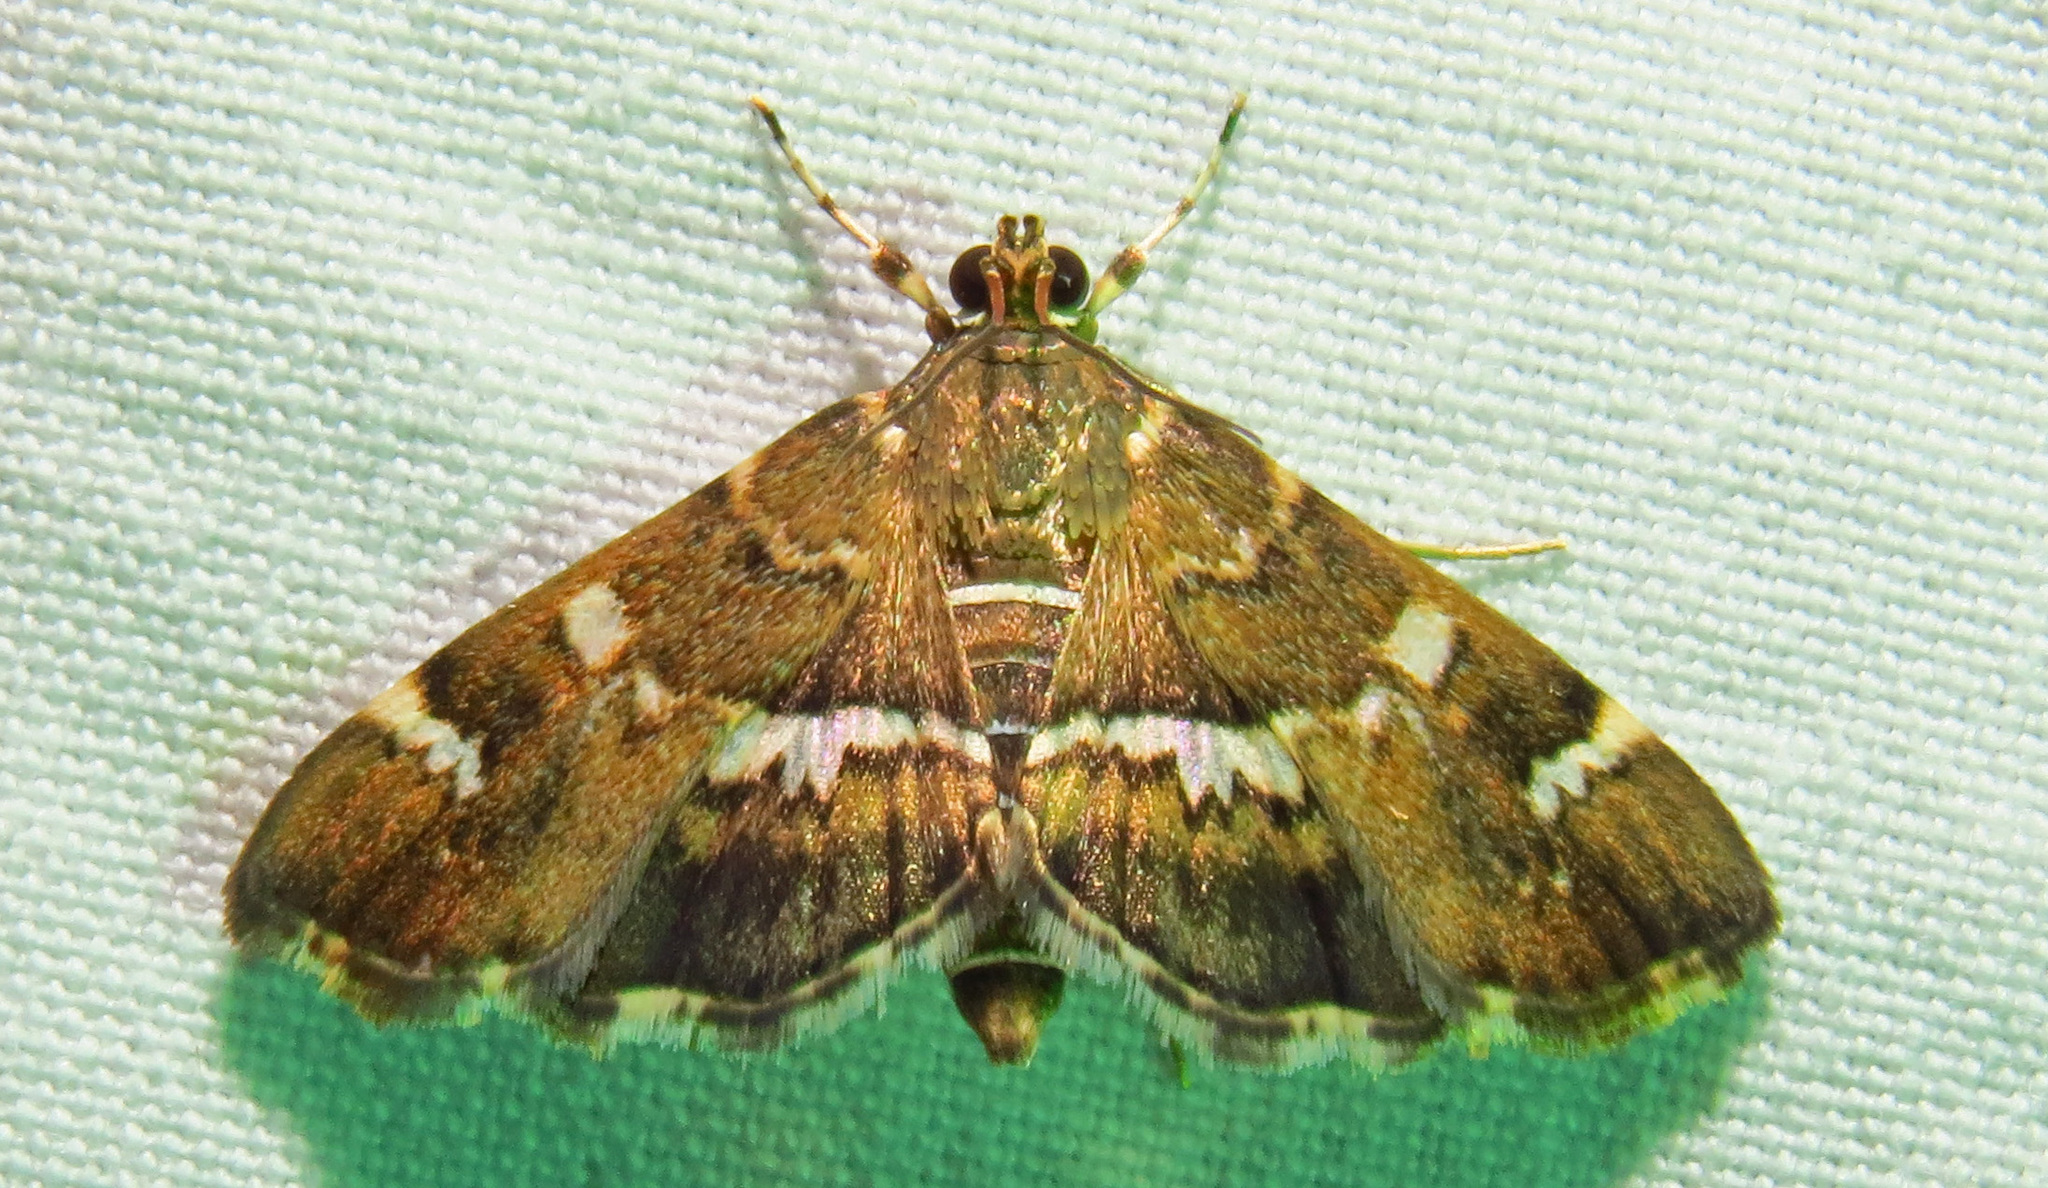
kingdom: Animalia
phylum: Arthropoda
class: Insecta
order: Lepidoptera
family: Crambidae
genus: Hymenia
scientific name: Hymenia perspectalis
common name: Spotted beet webworm
